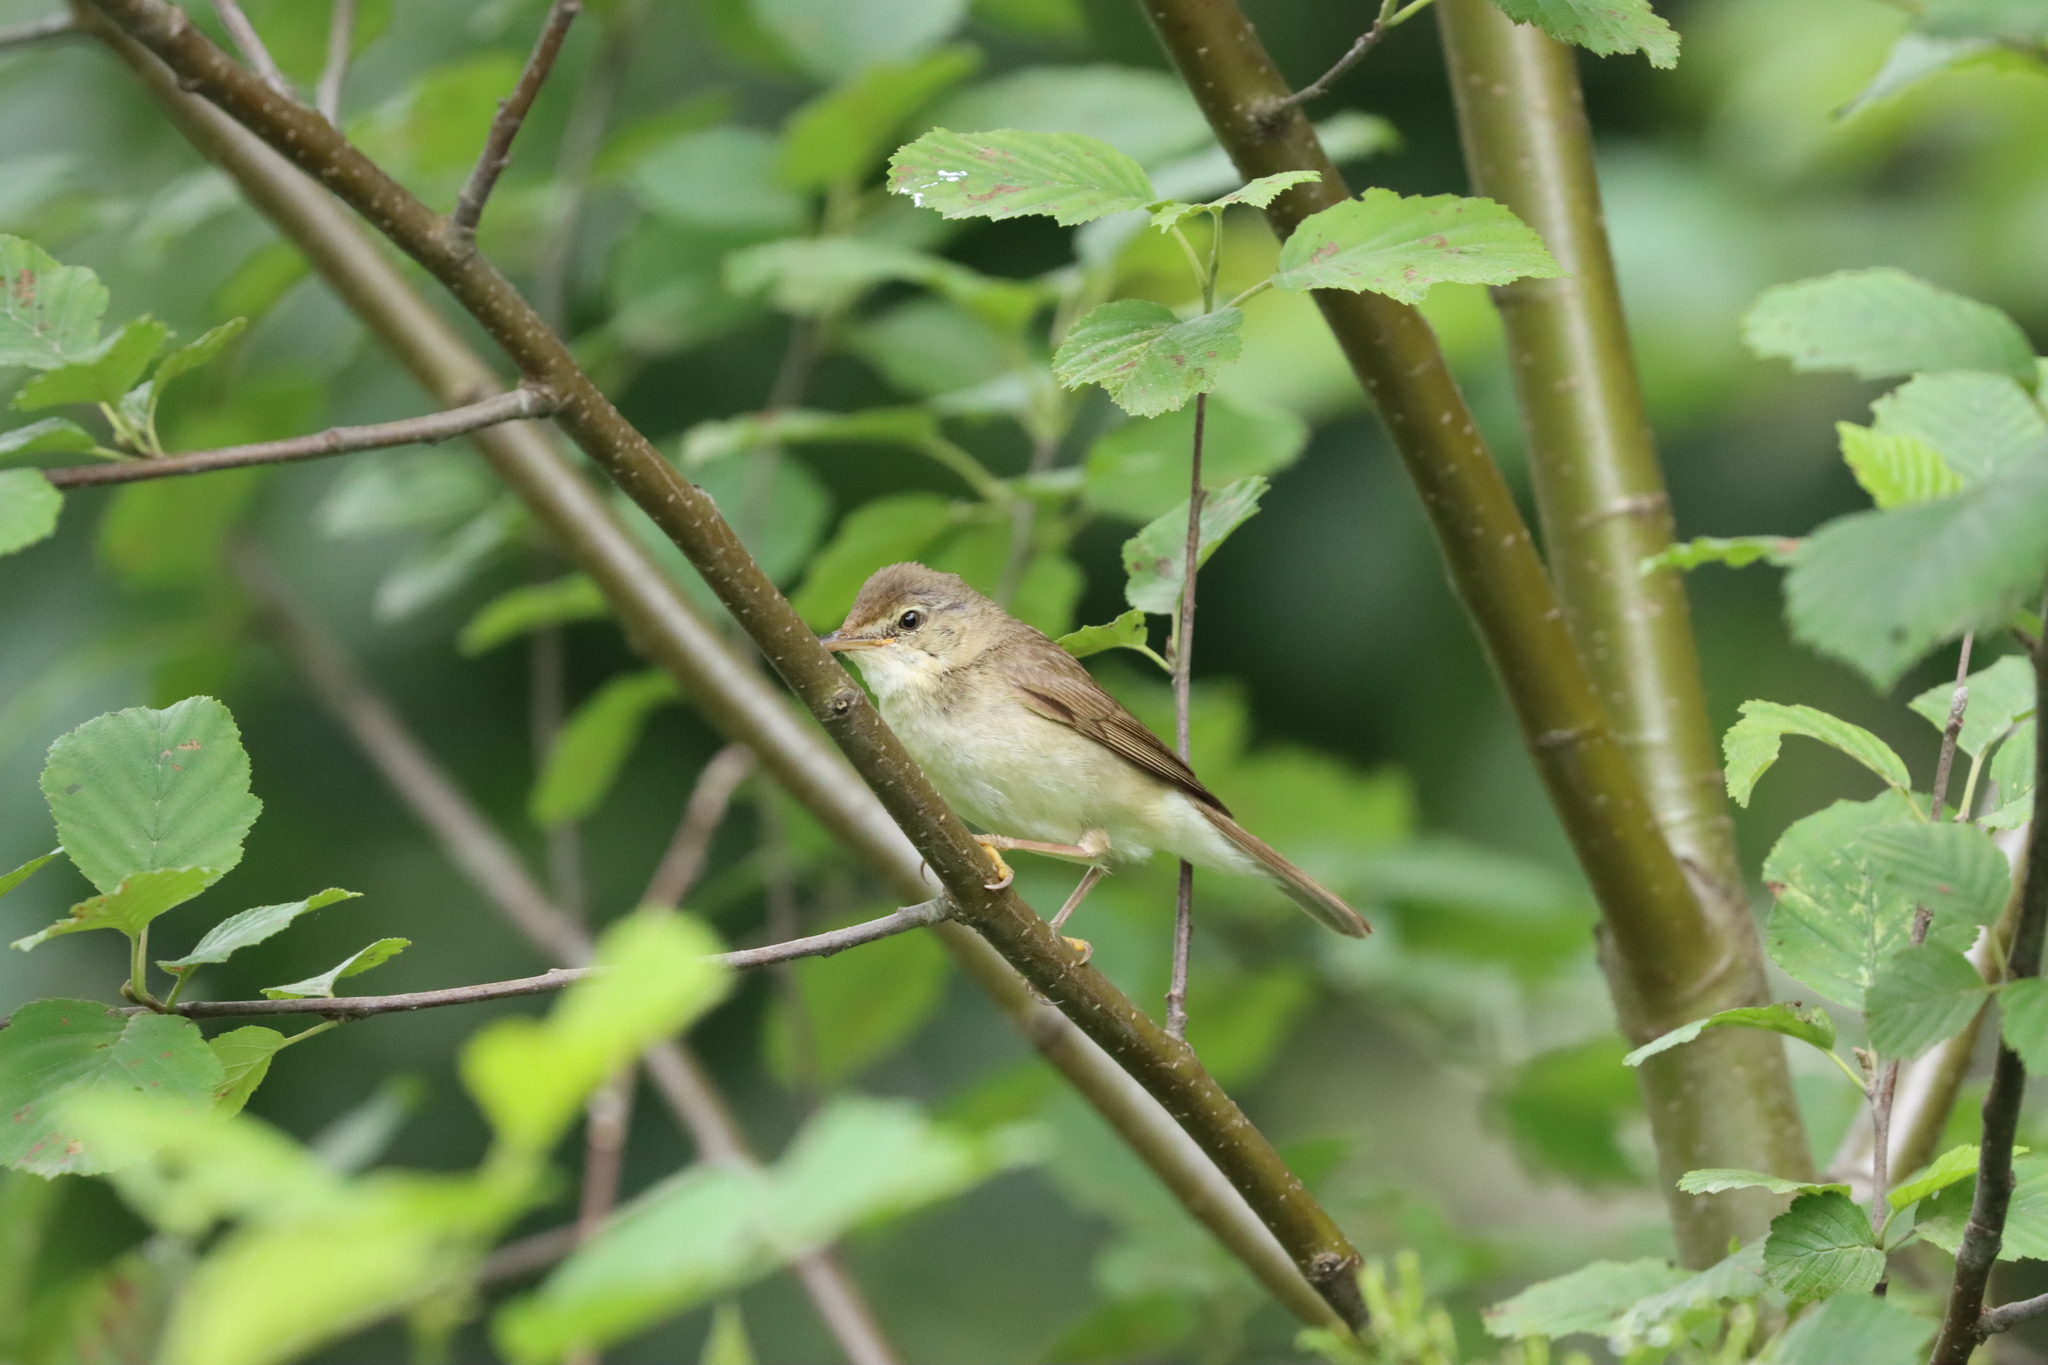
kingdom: Animalia
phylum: Chordata
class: Aves
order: Passeriformes
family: Acrocephalidae
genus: Acrocephalus
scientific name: Acrocephalus dumetorum
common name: Blyth's reed warbler
